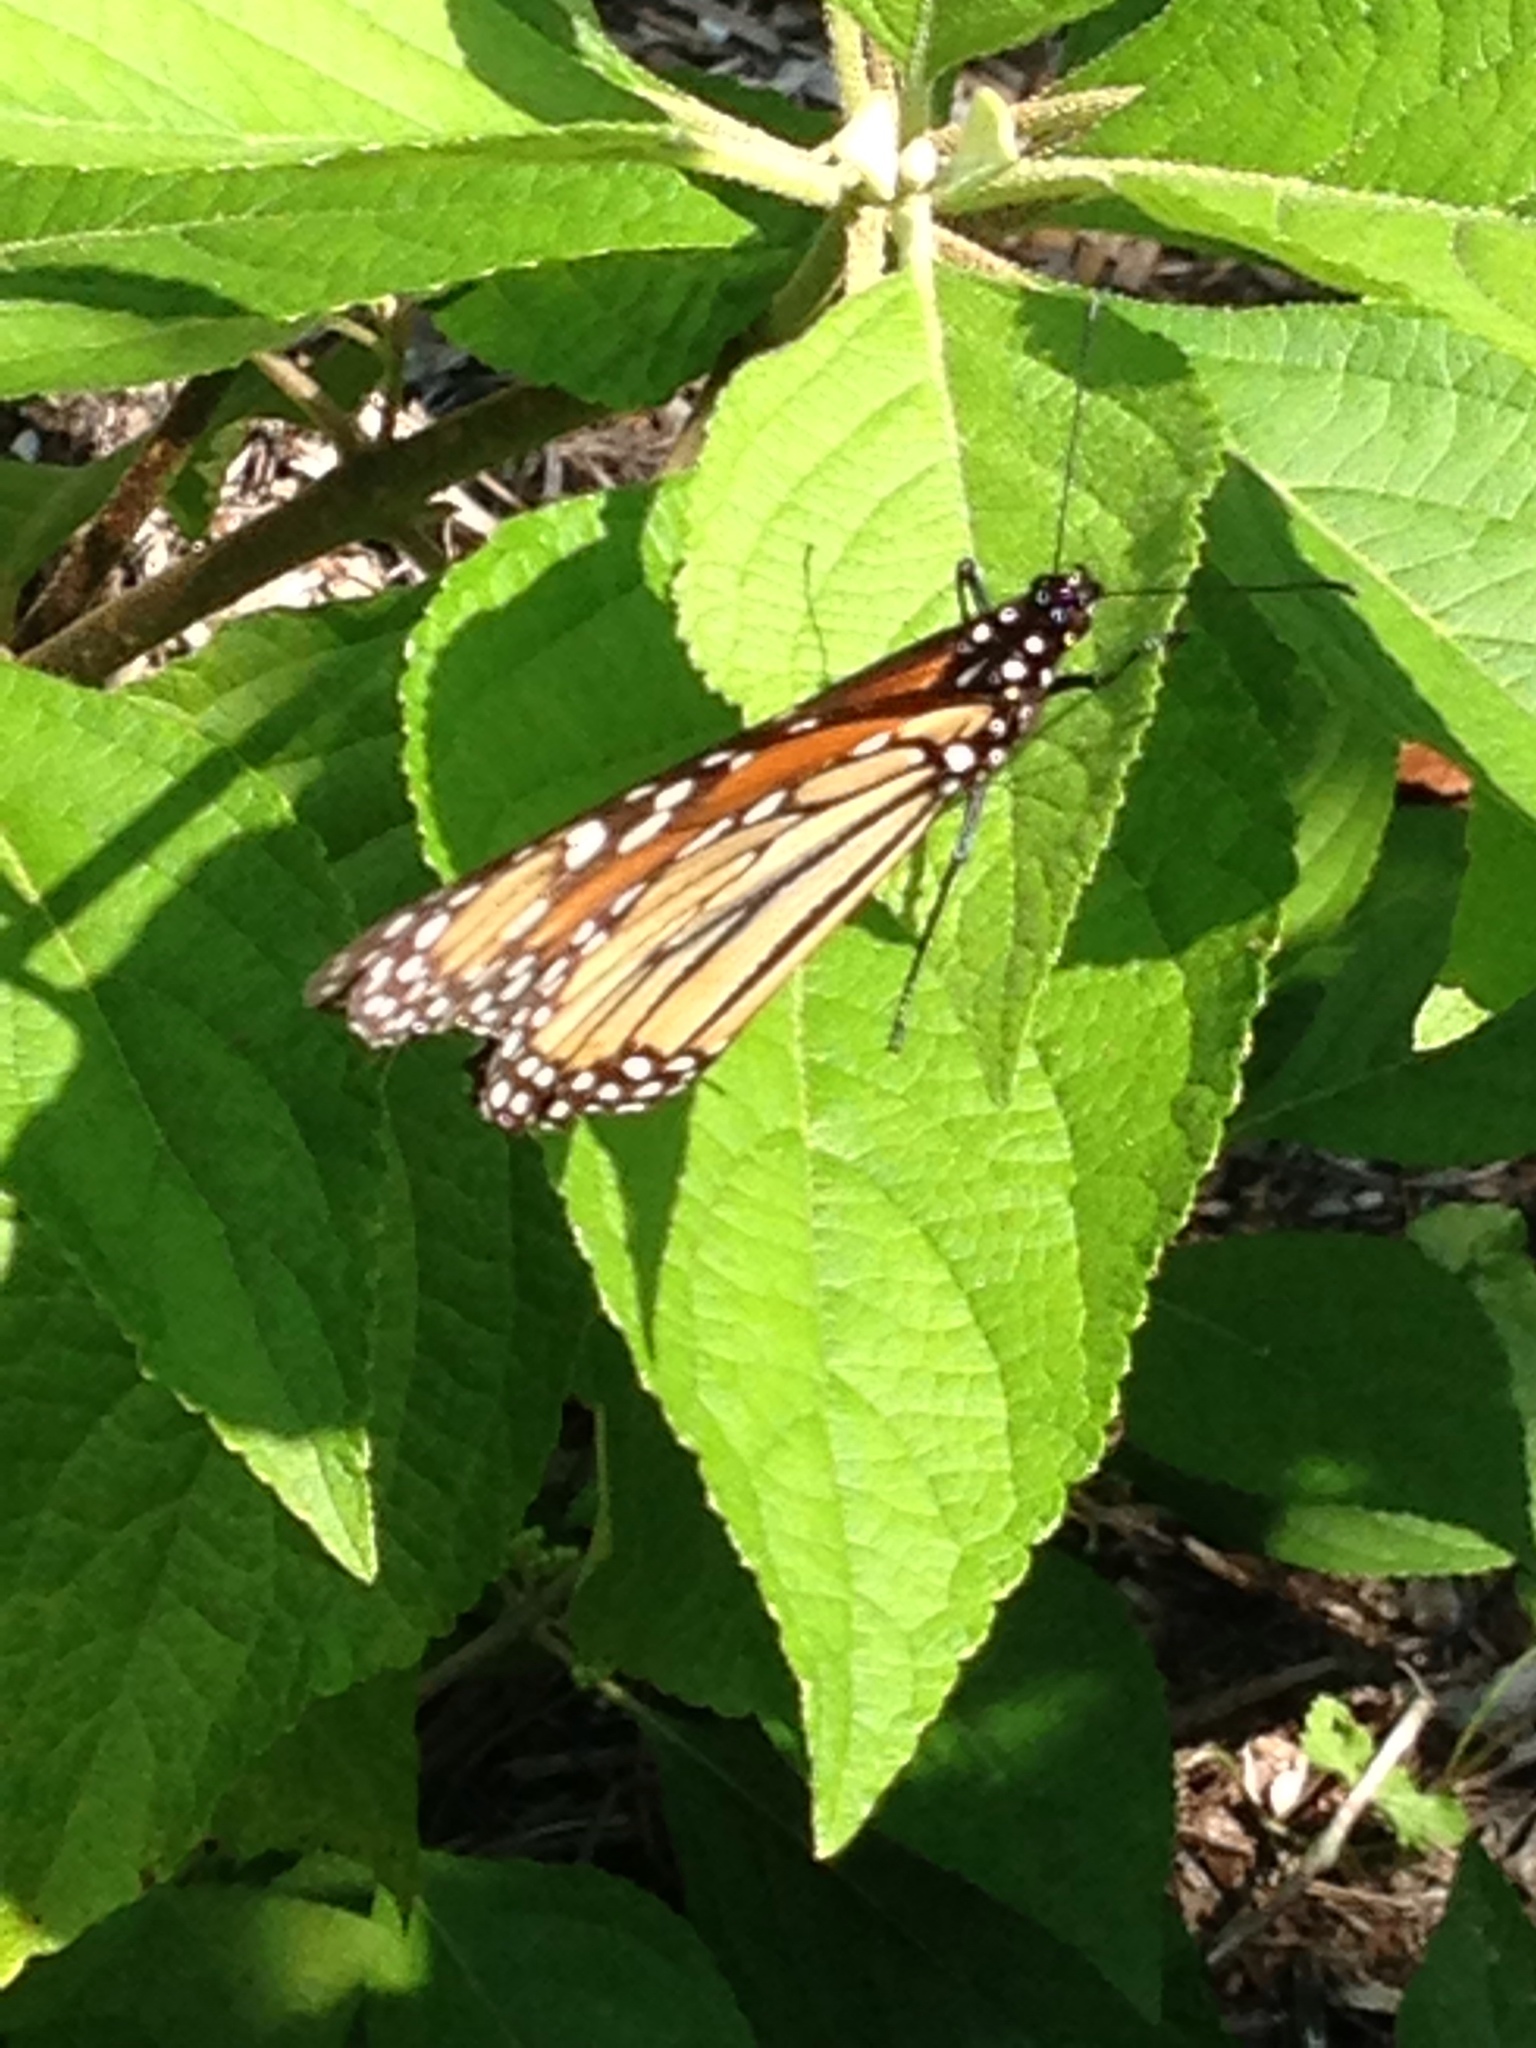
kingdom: Animalia
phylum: Arthropoda
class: Insecta
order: Lepidoptera
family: Nymphalidae
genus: Danaus
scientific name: Danaus plexippus
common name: Monarch
